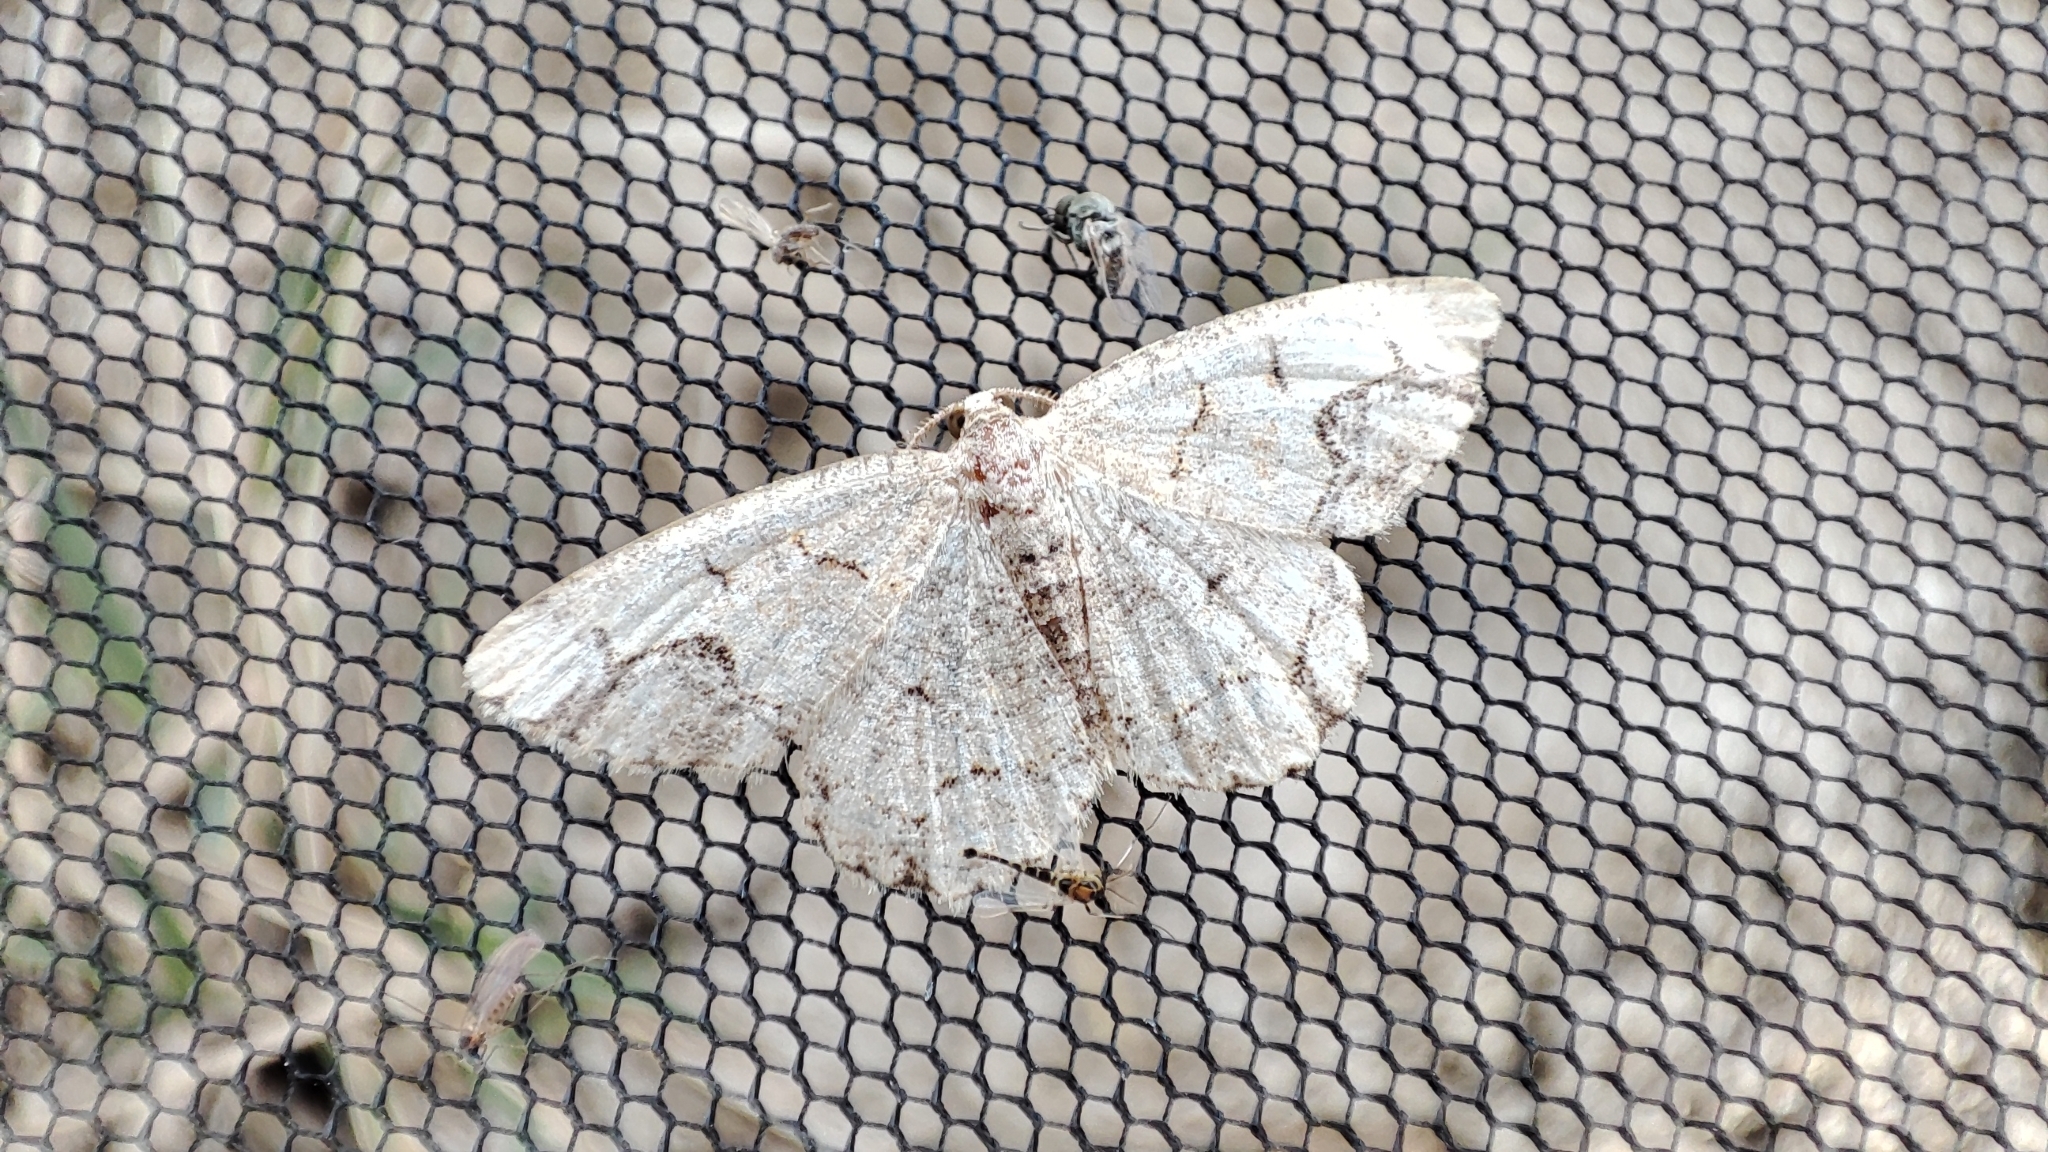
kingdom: Animalia
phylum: Arthropoda
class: Insecta
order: Lepidoptera
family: Geometridae
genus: Stegania
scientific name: Stegania dalmataria
